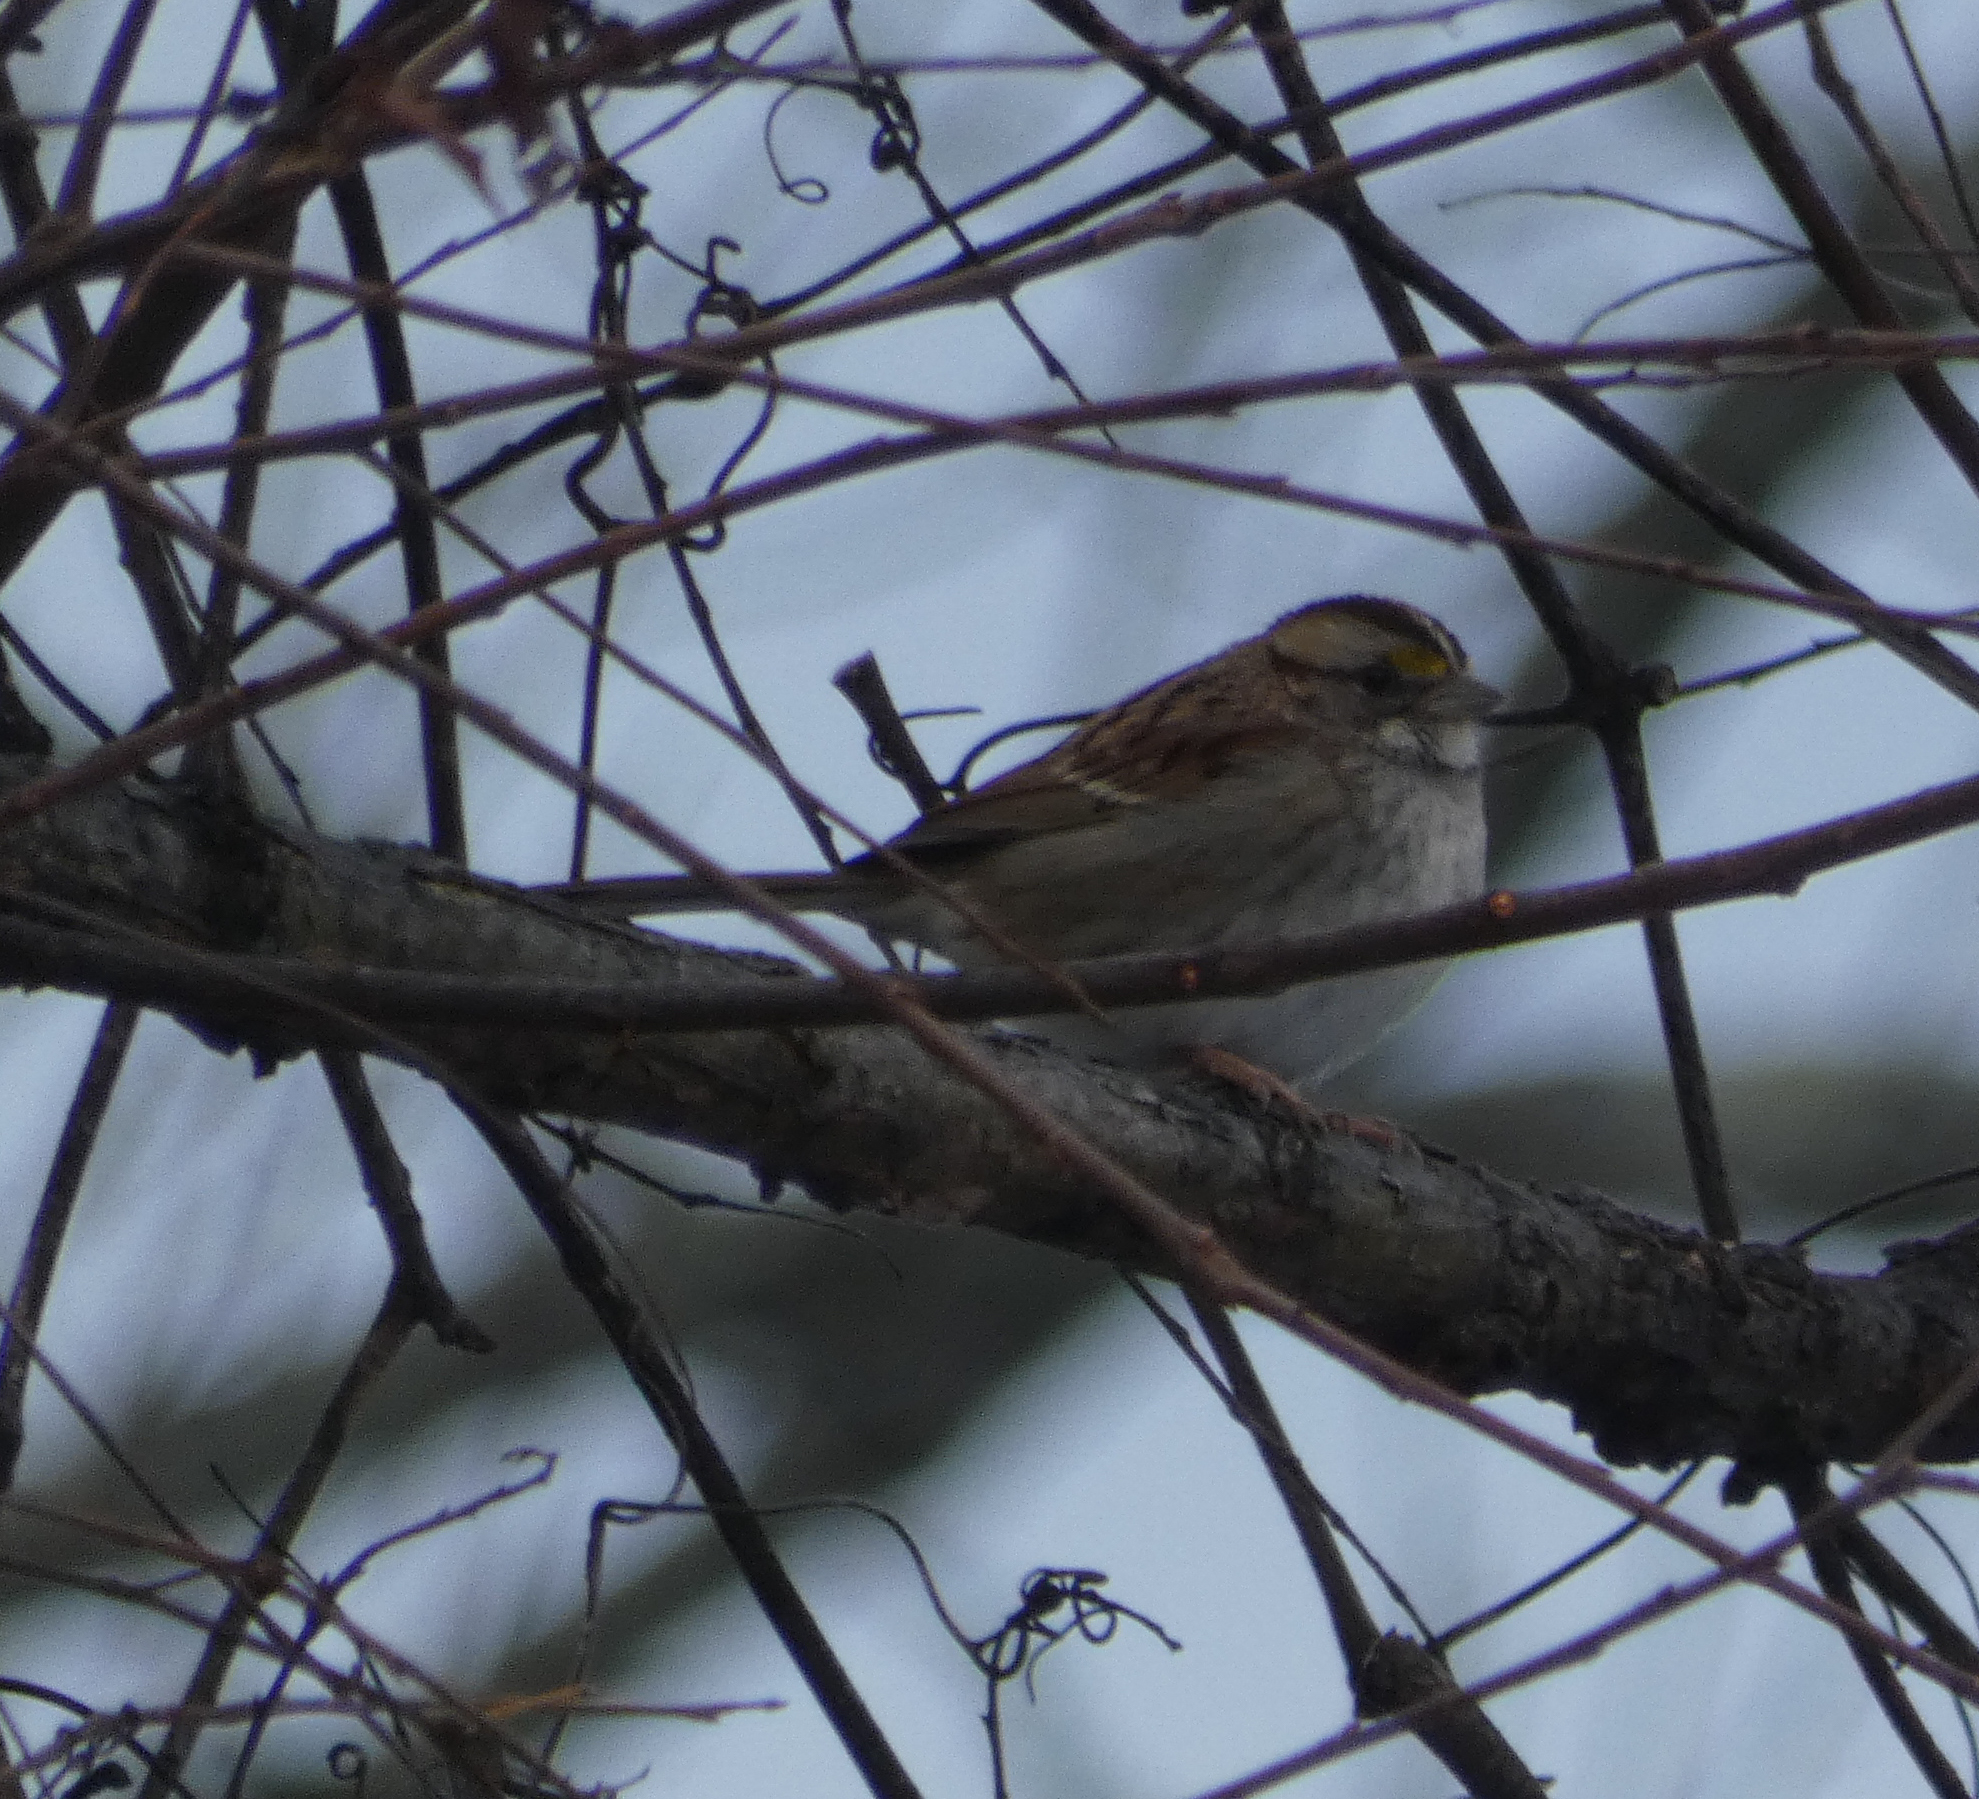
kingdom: Animalia
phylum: Chordata
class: Aves
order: Passeriformes
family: Passerellidae
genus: Zonotrichia
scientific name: Zonotrichia albicollis
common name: White-throated sparrow
